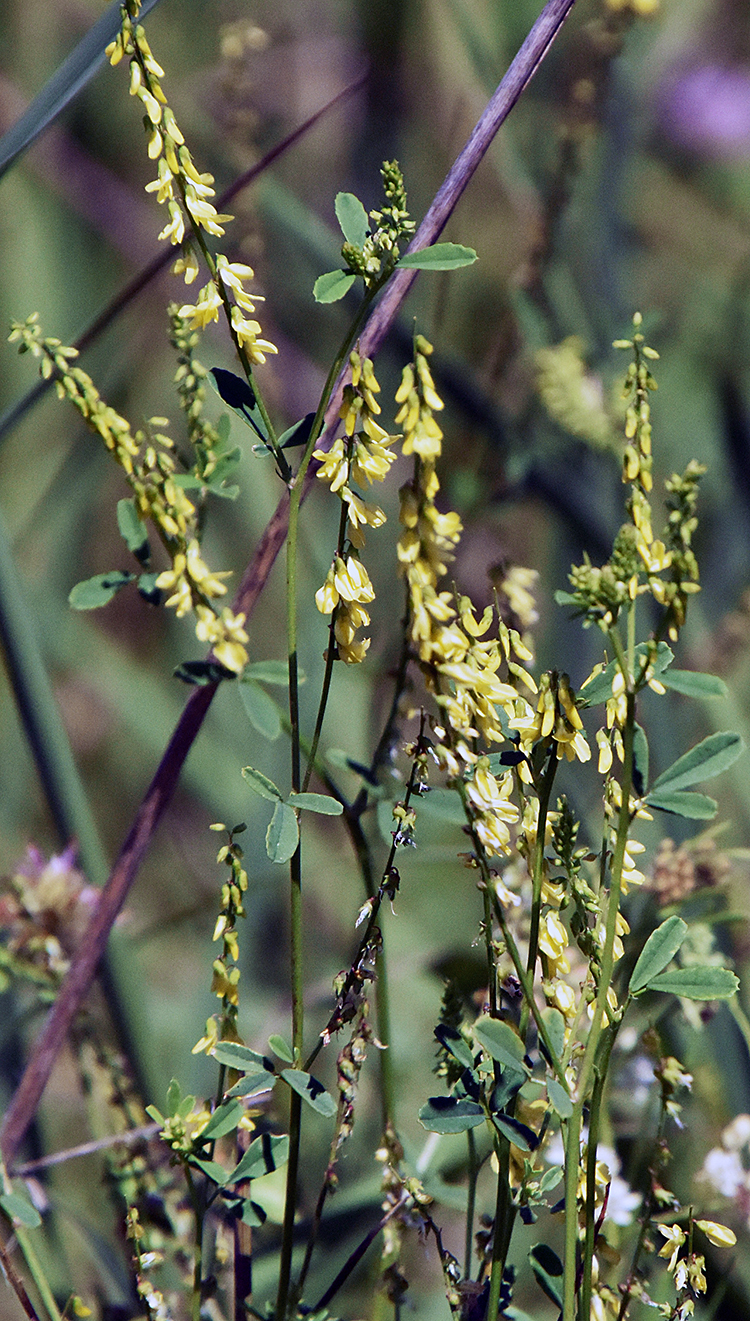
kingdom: Plantae
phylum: Tracheophyta
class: Magnoliopsida
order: Fabales
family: Fabaceae
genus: Melilotus
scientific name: Melilotus officinalis
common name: Sweetclover
